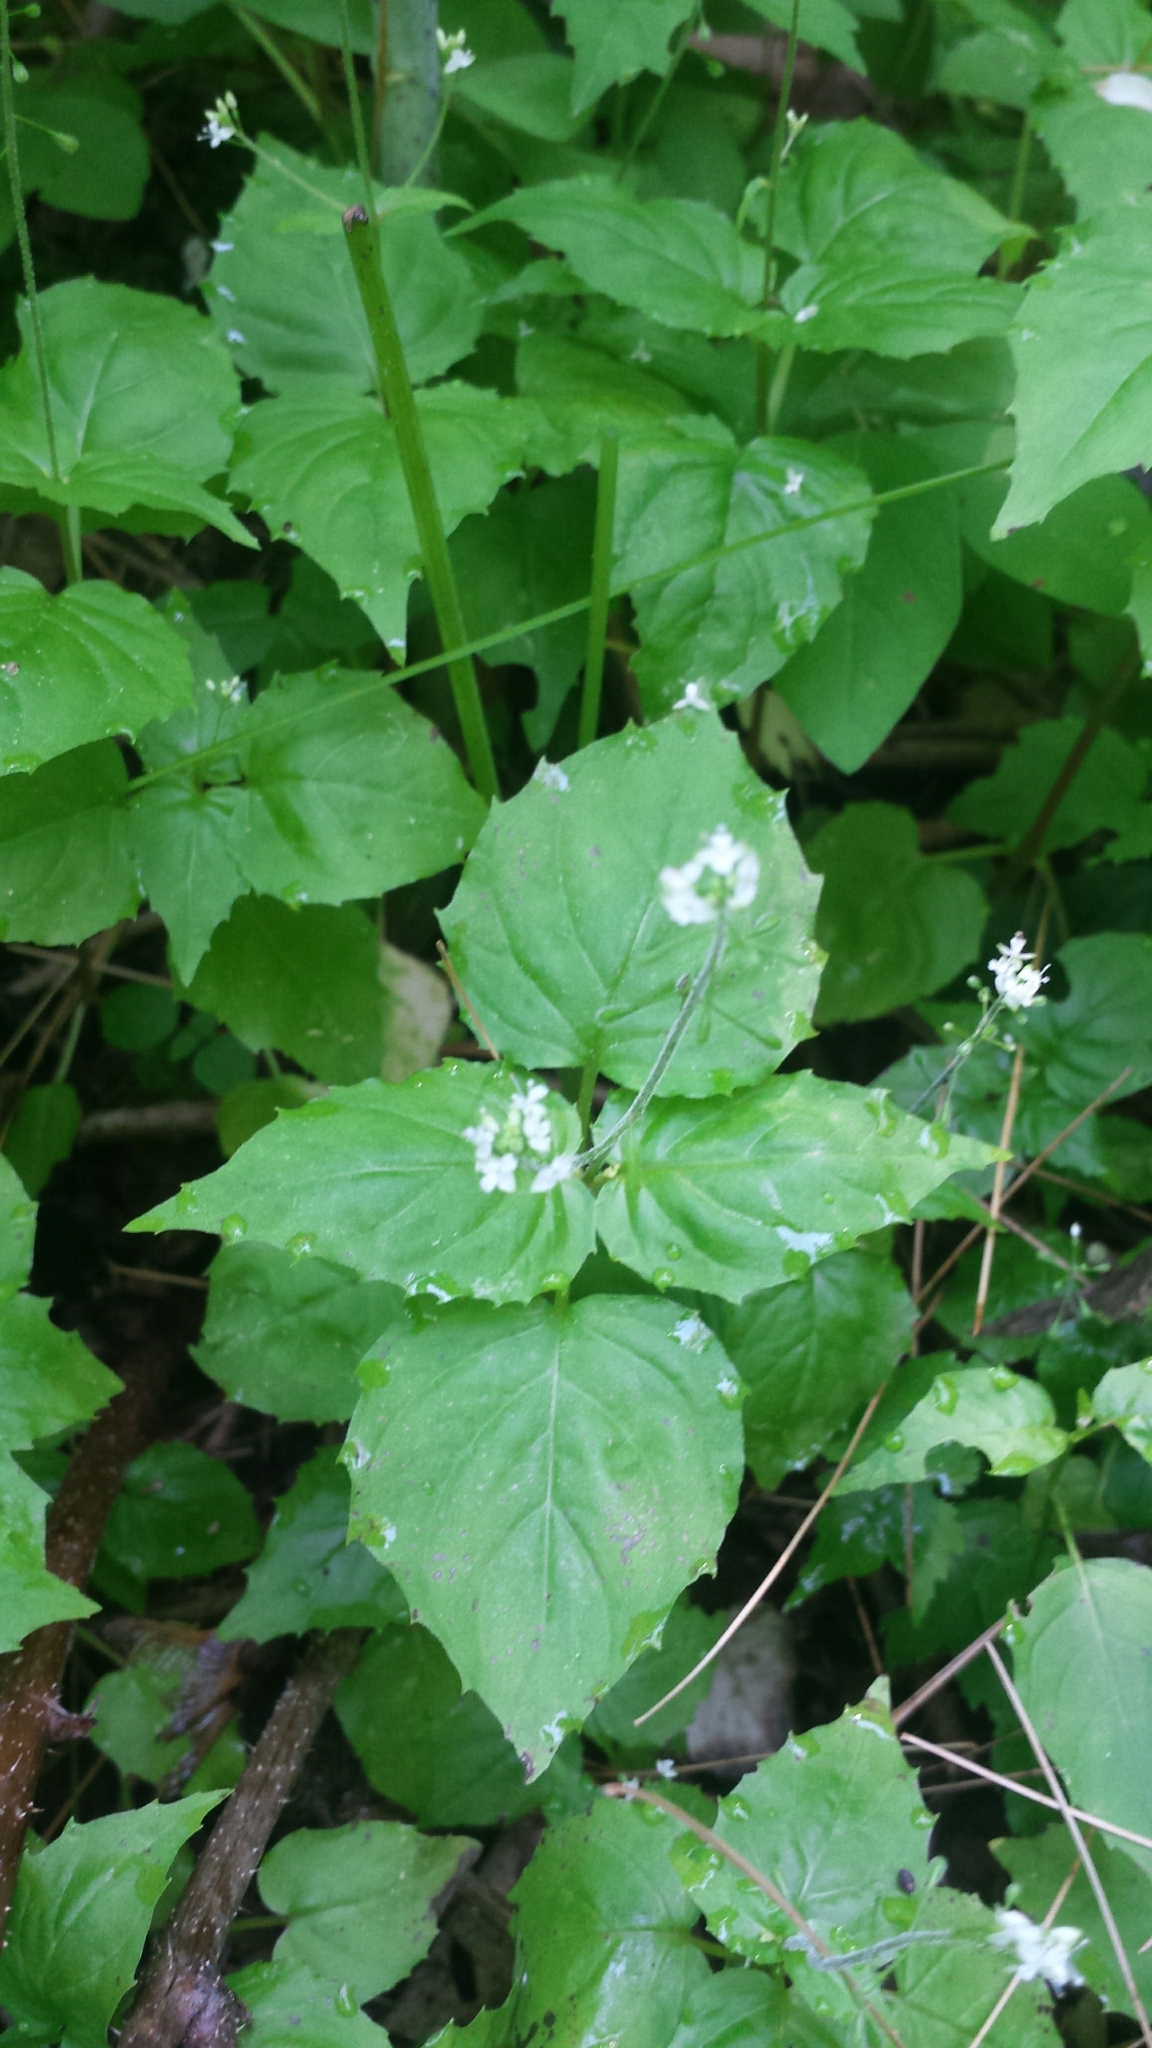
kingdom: Plantae
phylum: Tracheophyta
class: Magnoliopsida
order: Myrtales
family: Onagraceae
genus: Circaea
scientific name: Circaea alpina
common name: Alpine enchanter's-nightshade
